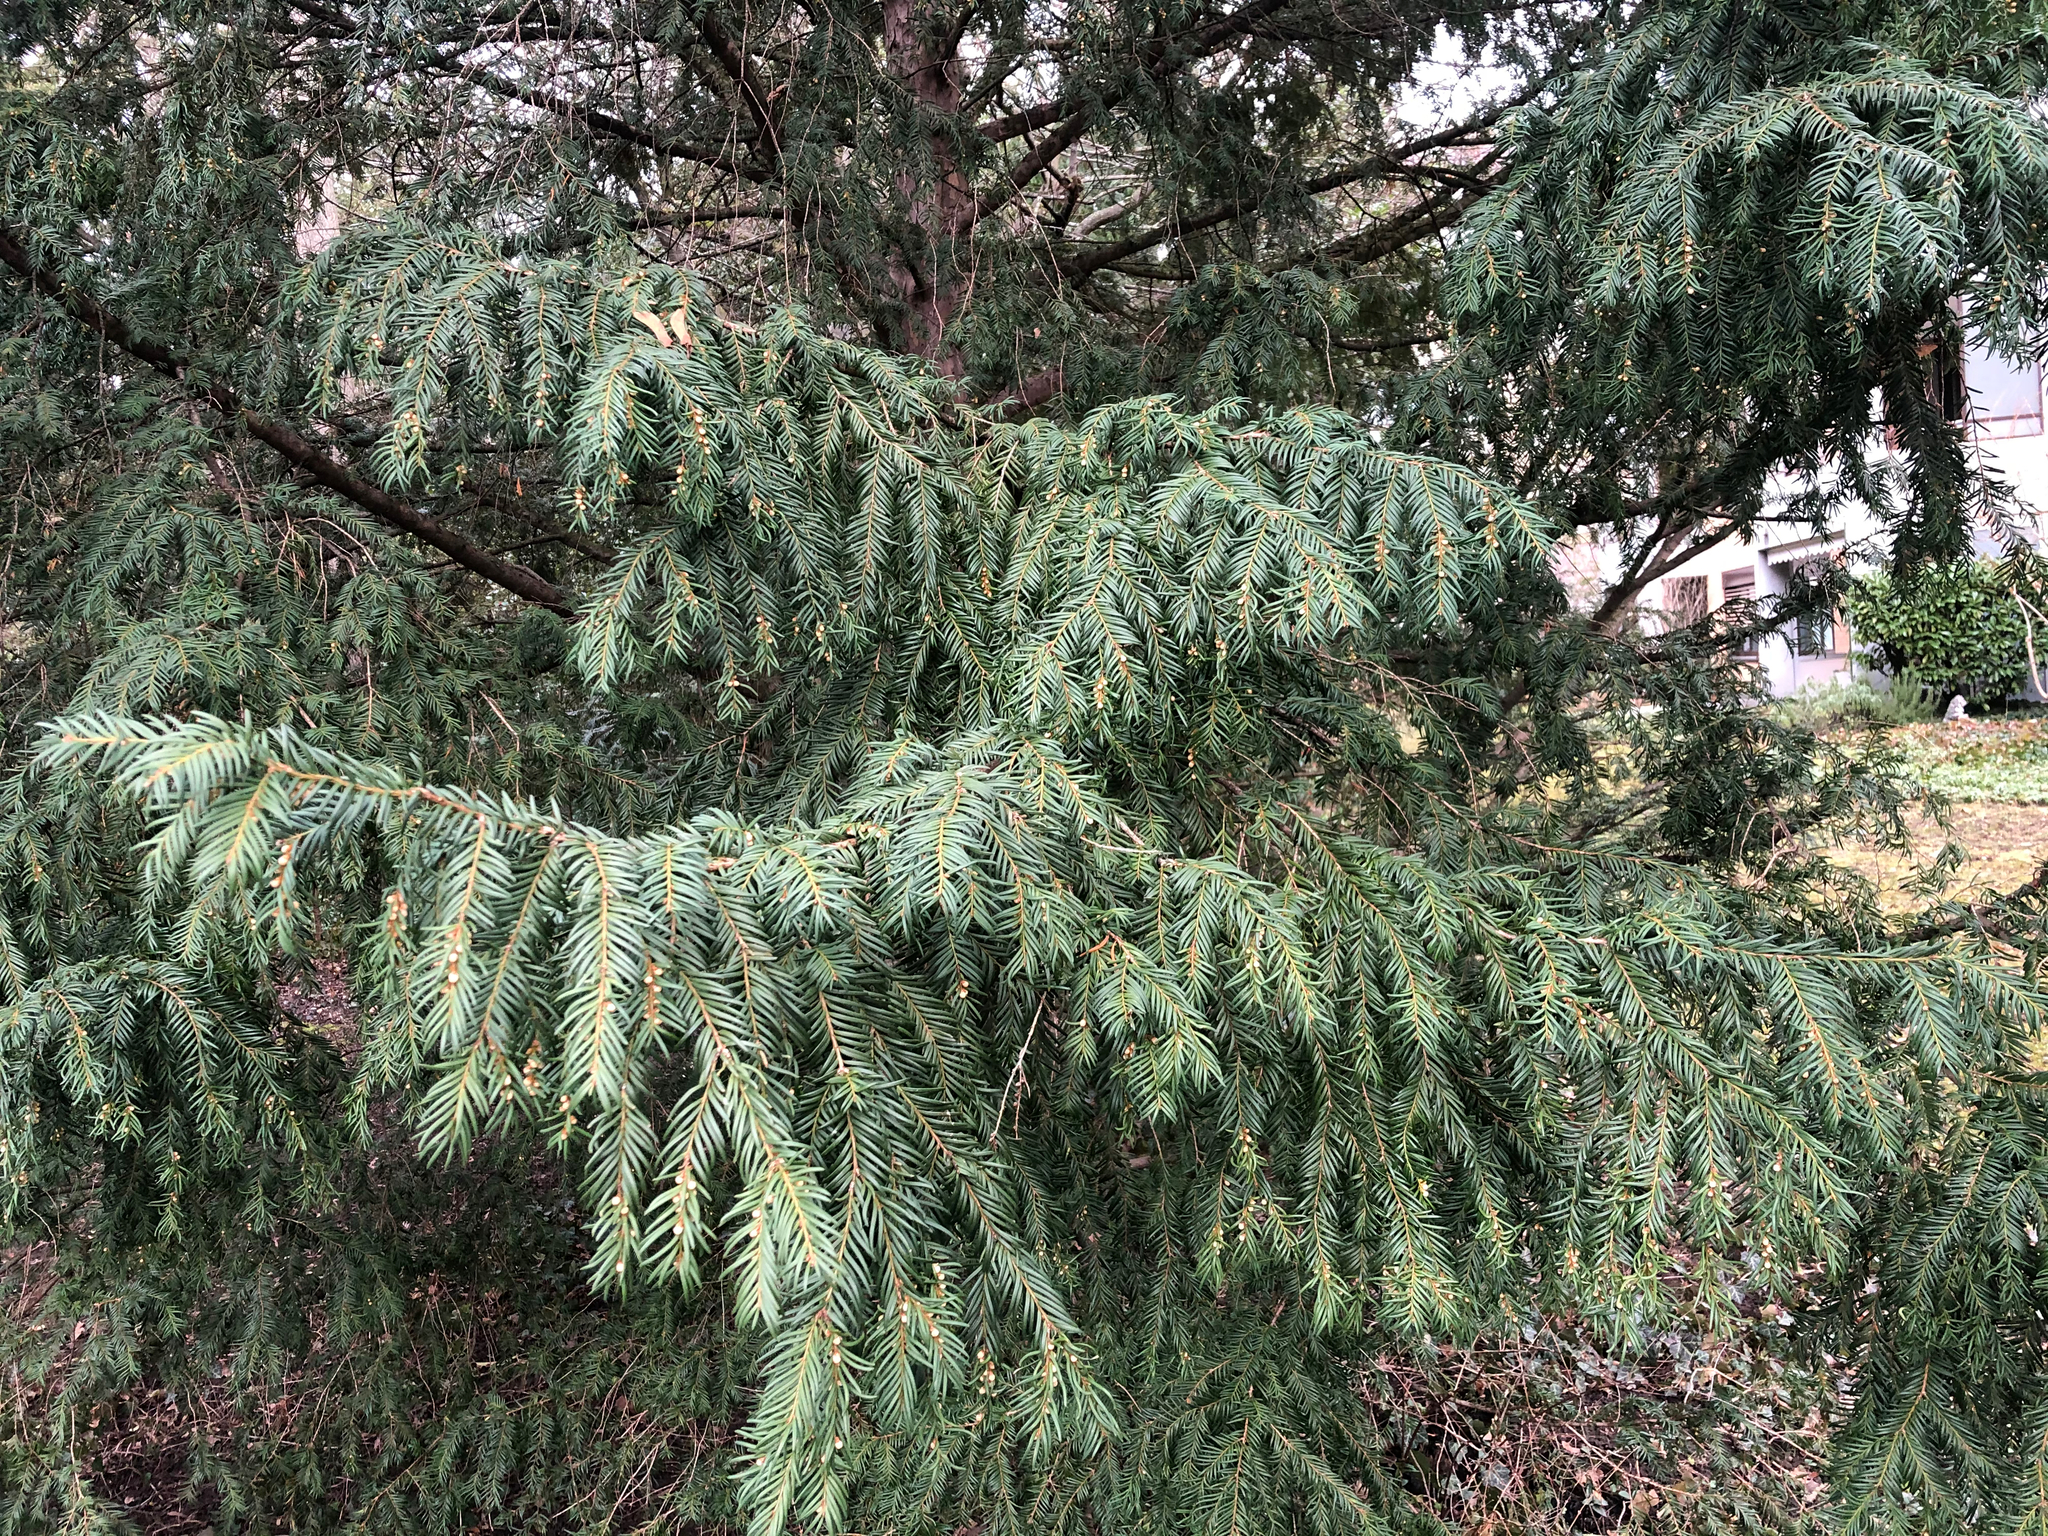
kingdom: Plantae
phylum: Tracheophyta
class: Pinopsida
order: Pinales
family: Taxaceae
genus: Taxus
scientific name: Taxus baccata
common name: Yew
